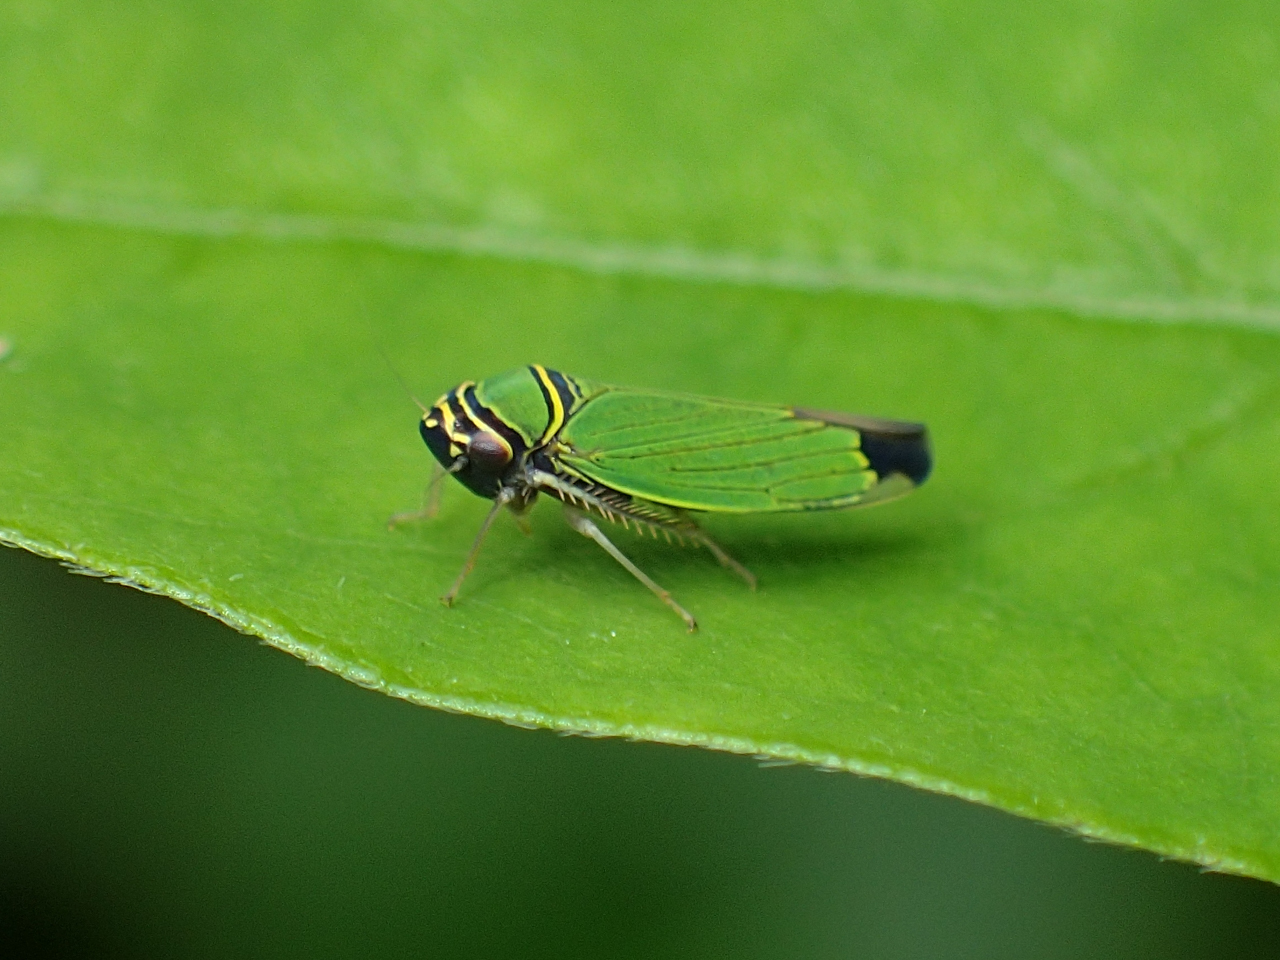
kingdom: Animalia
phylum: Arthropoda
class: Insecta
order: Hemiptera
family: Cicadellidae
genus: Tylozygus
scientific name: Tylozygus geometricus
